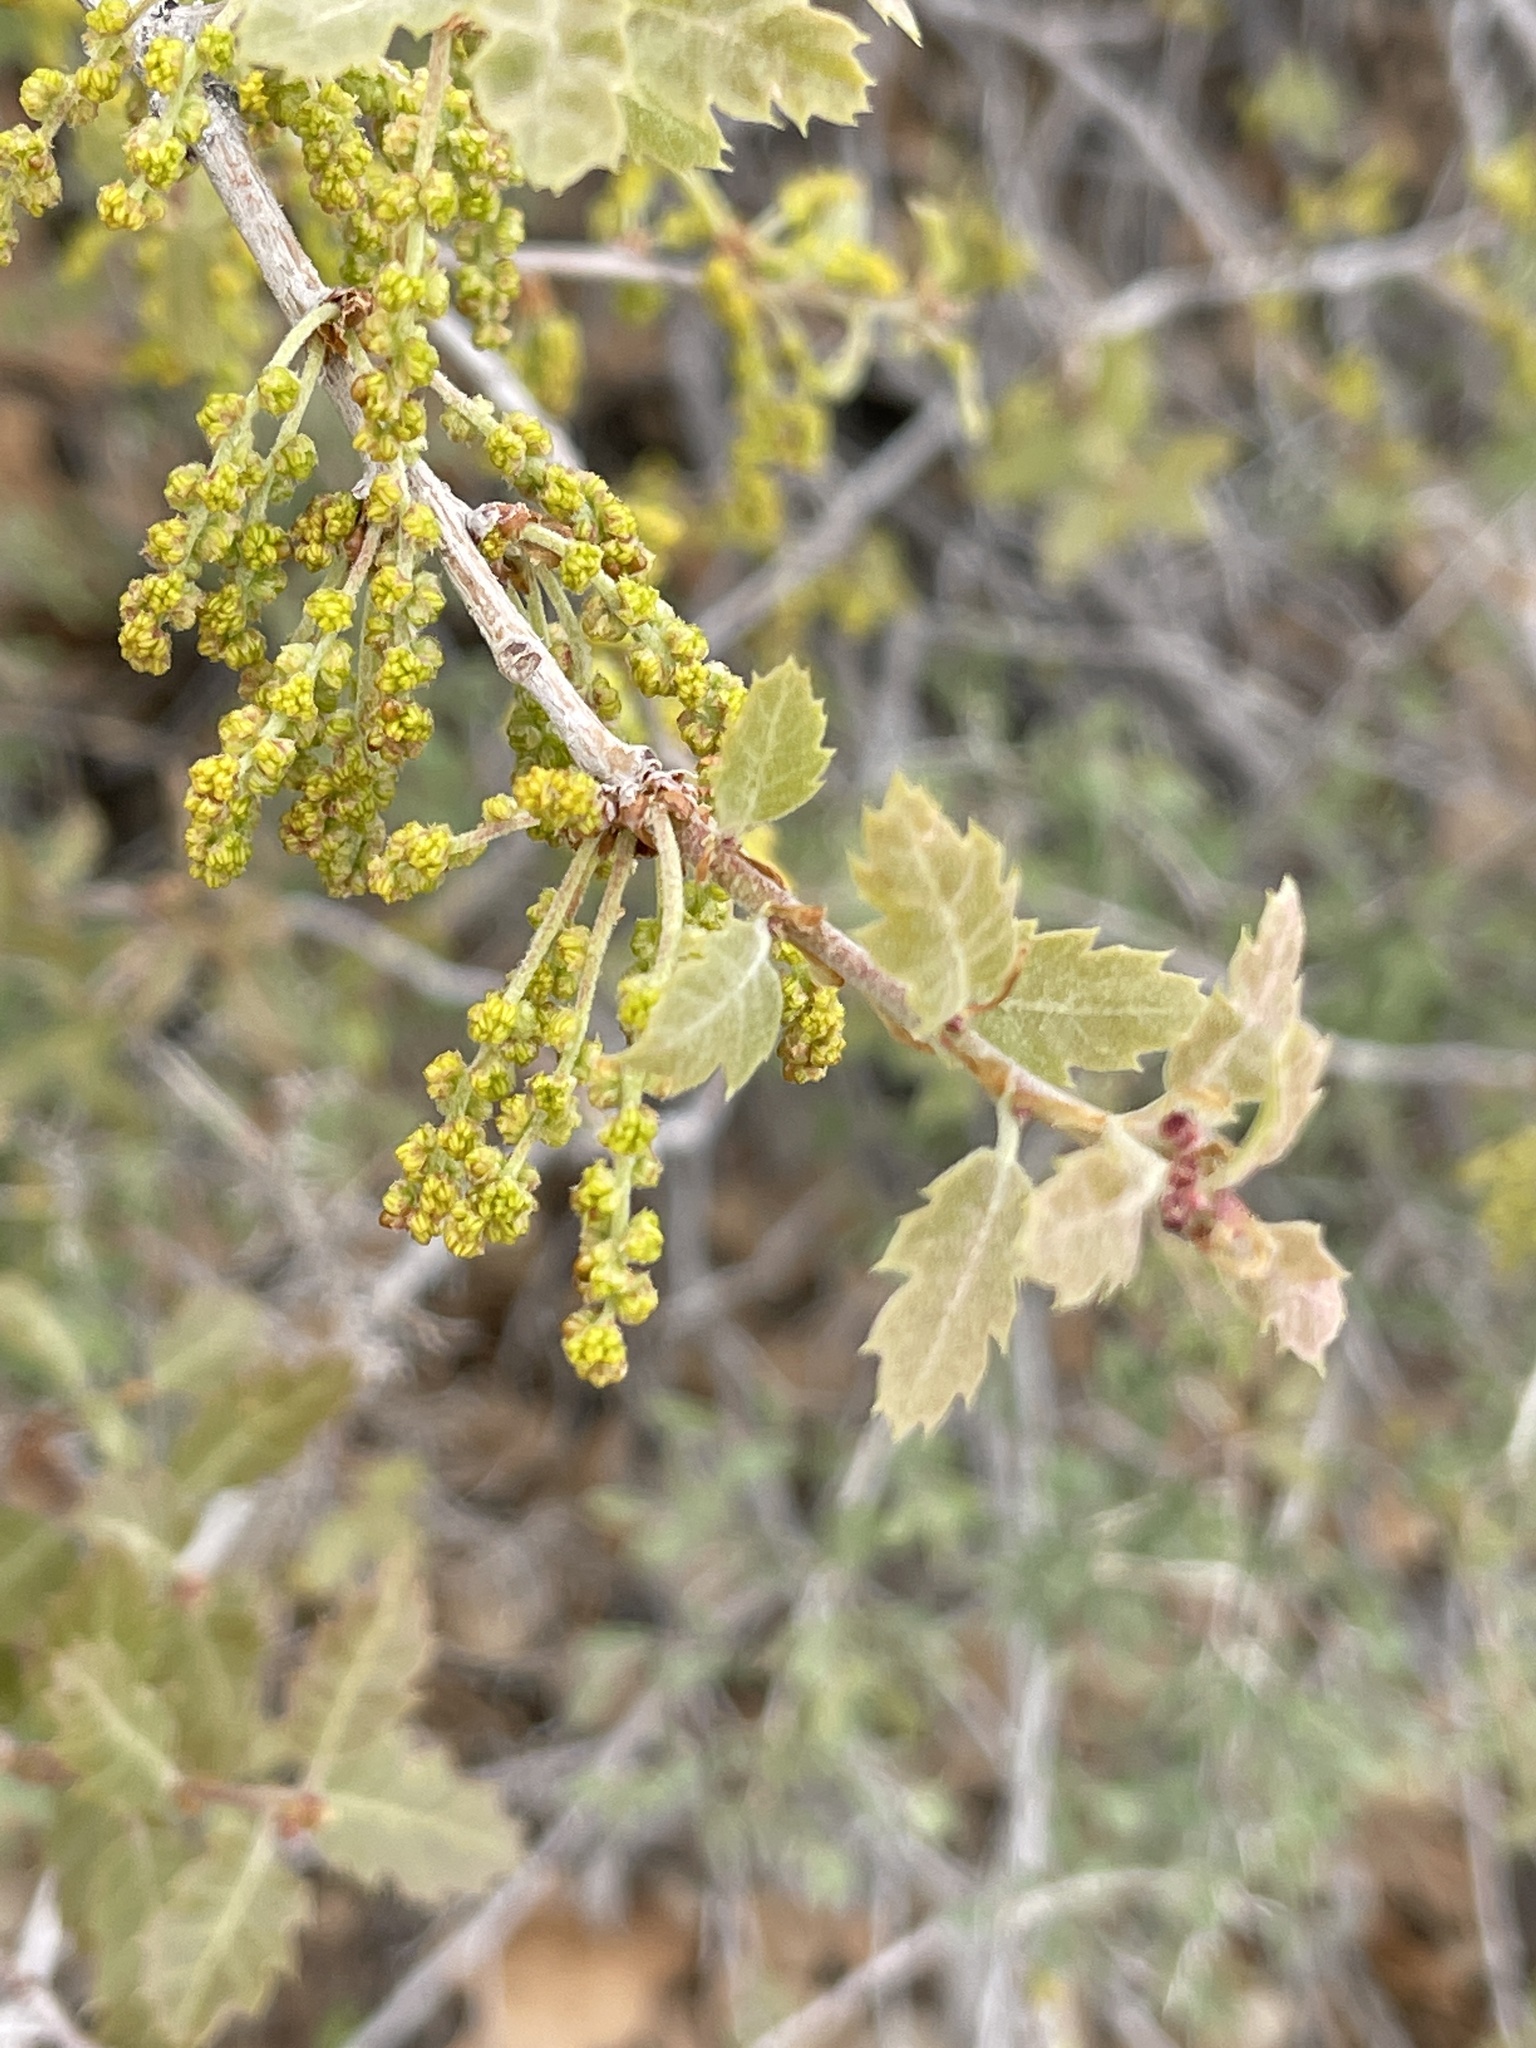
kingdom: Plantae
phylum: Tracheophyta
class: Magnoliopsida
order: Fagales
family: Fagaceae
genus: Quercus
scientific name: Quercus welshii
